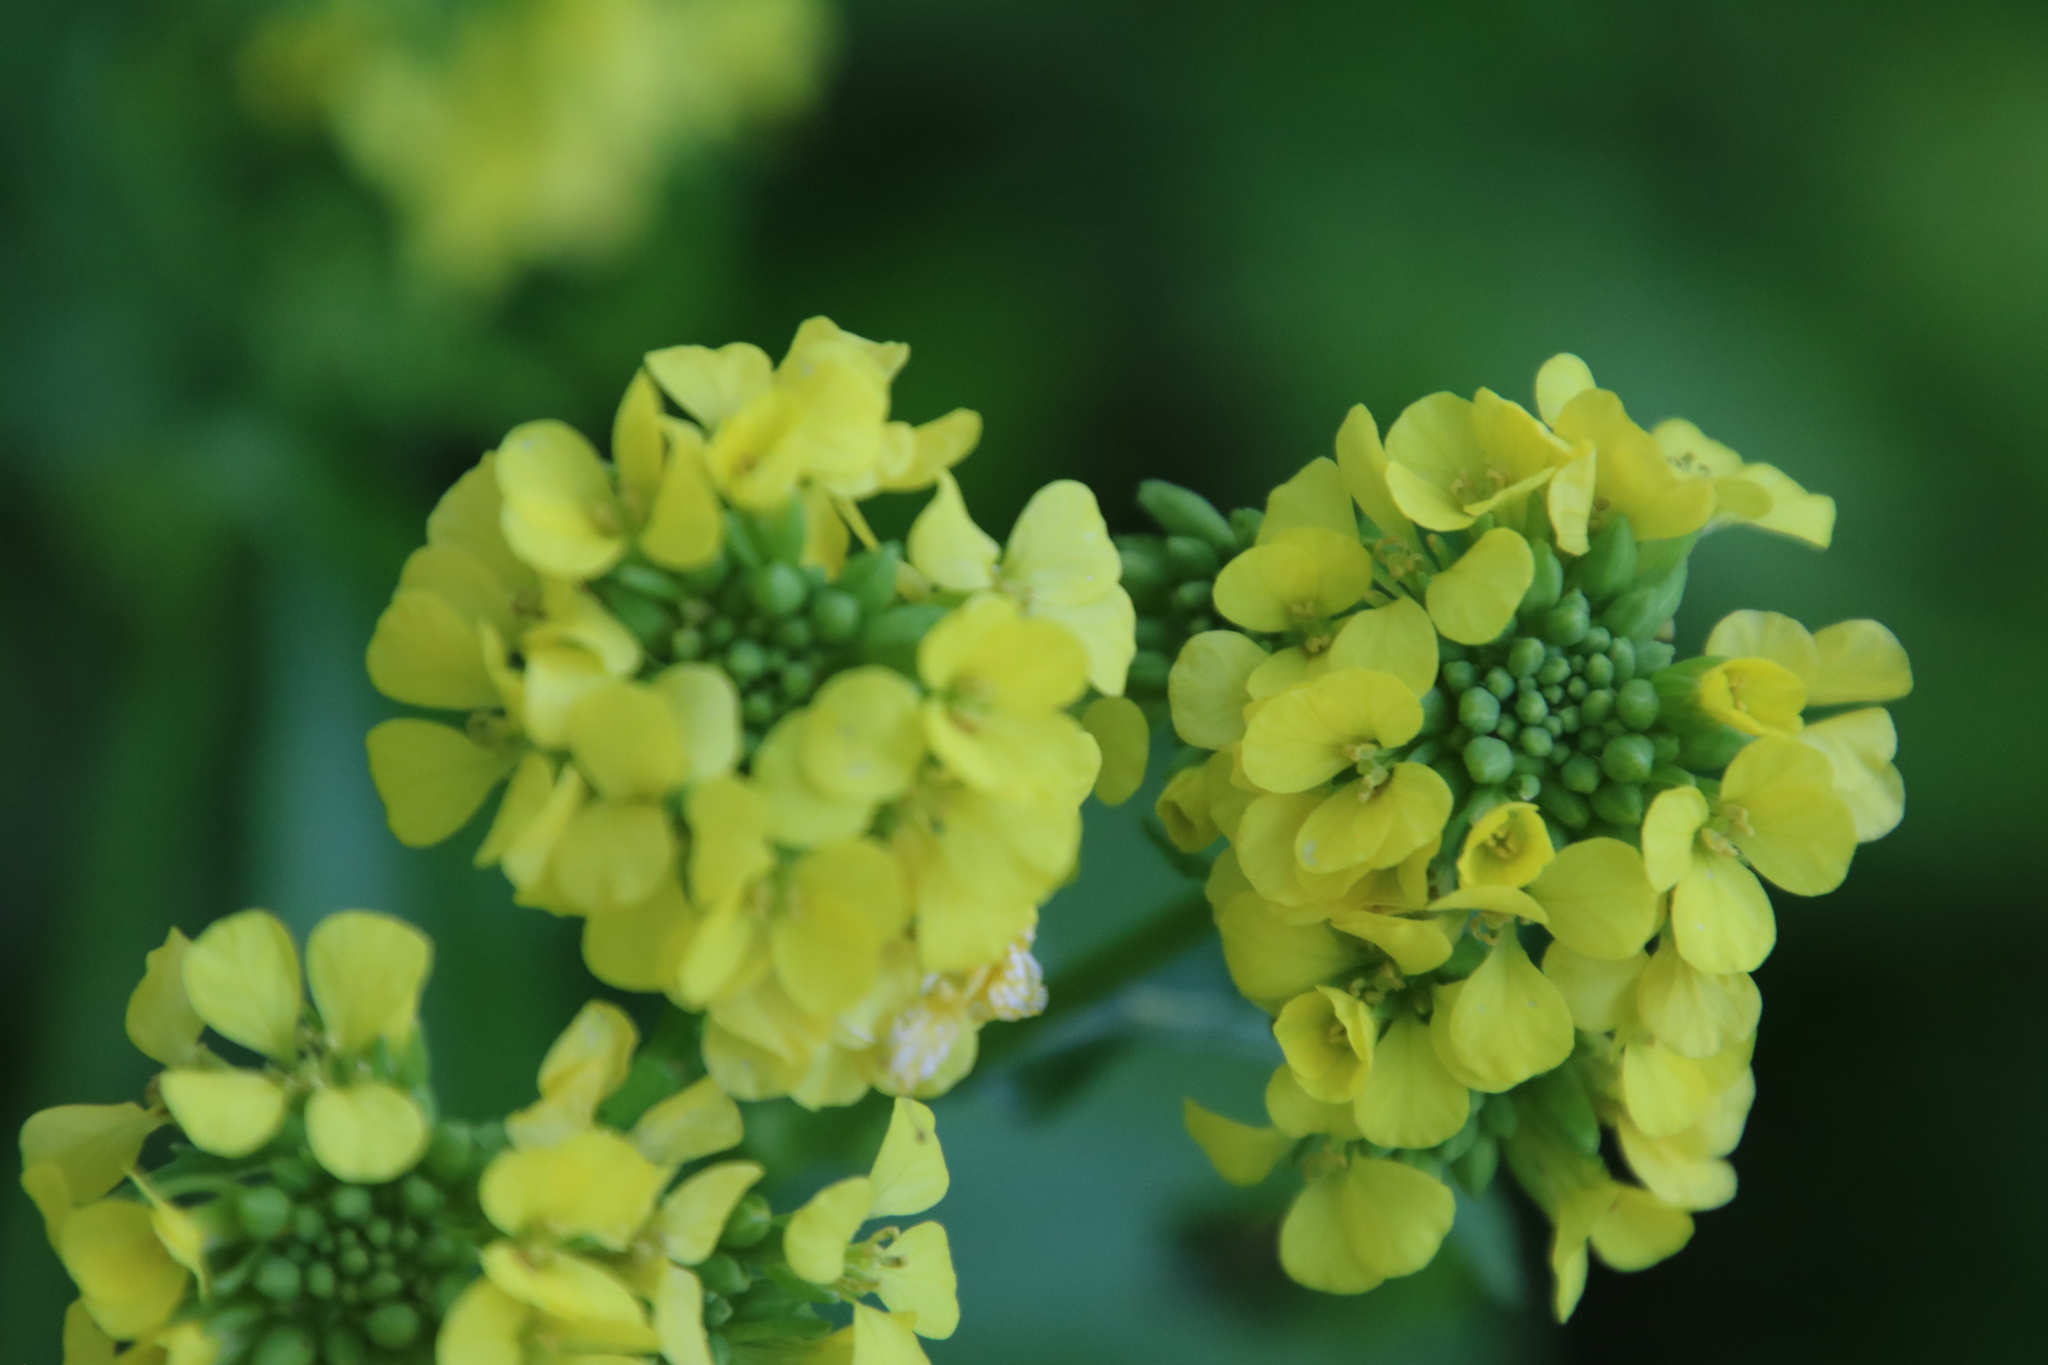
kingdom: Plantae
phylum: Tracheophyta
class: Magnoliopsida
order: Brassicales
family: Brassicaceae
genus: Rapistrum
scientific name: Rapistrum rugosum
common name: Annual bastardcabbage
